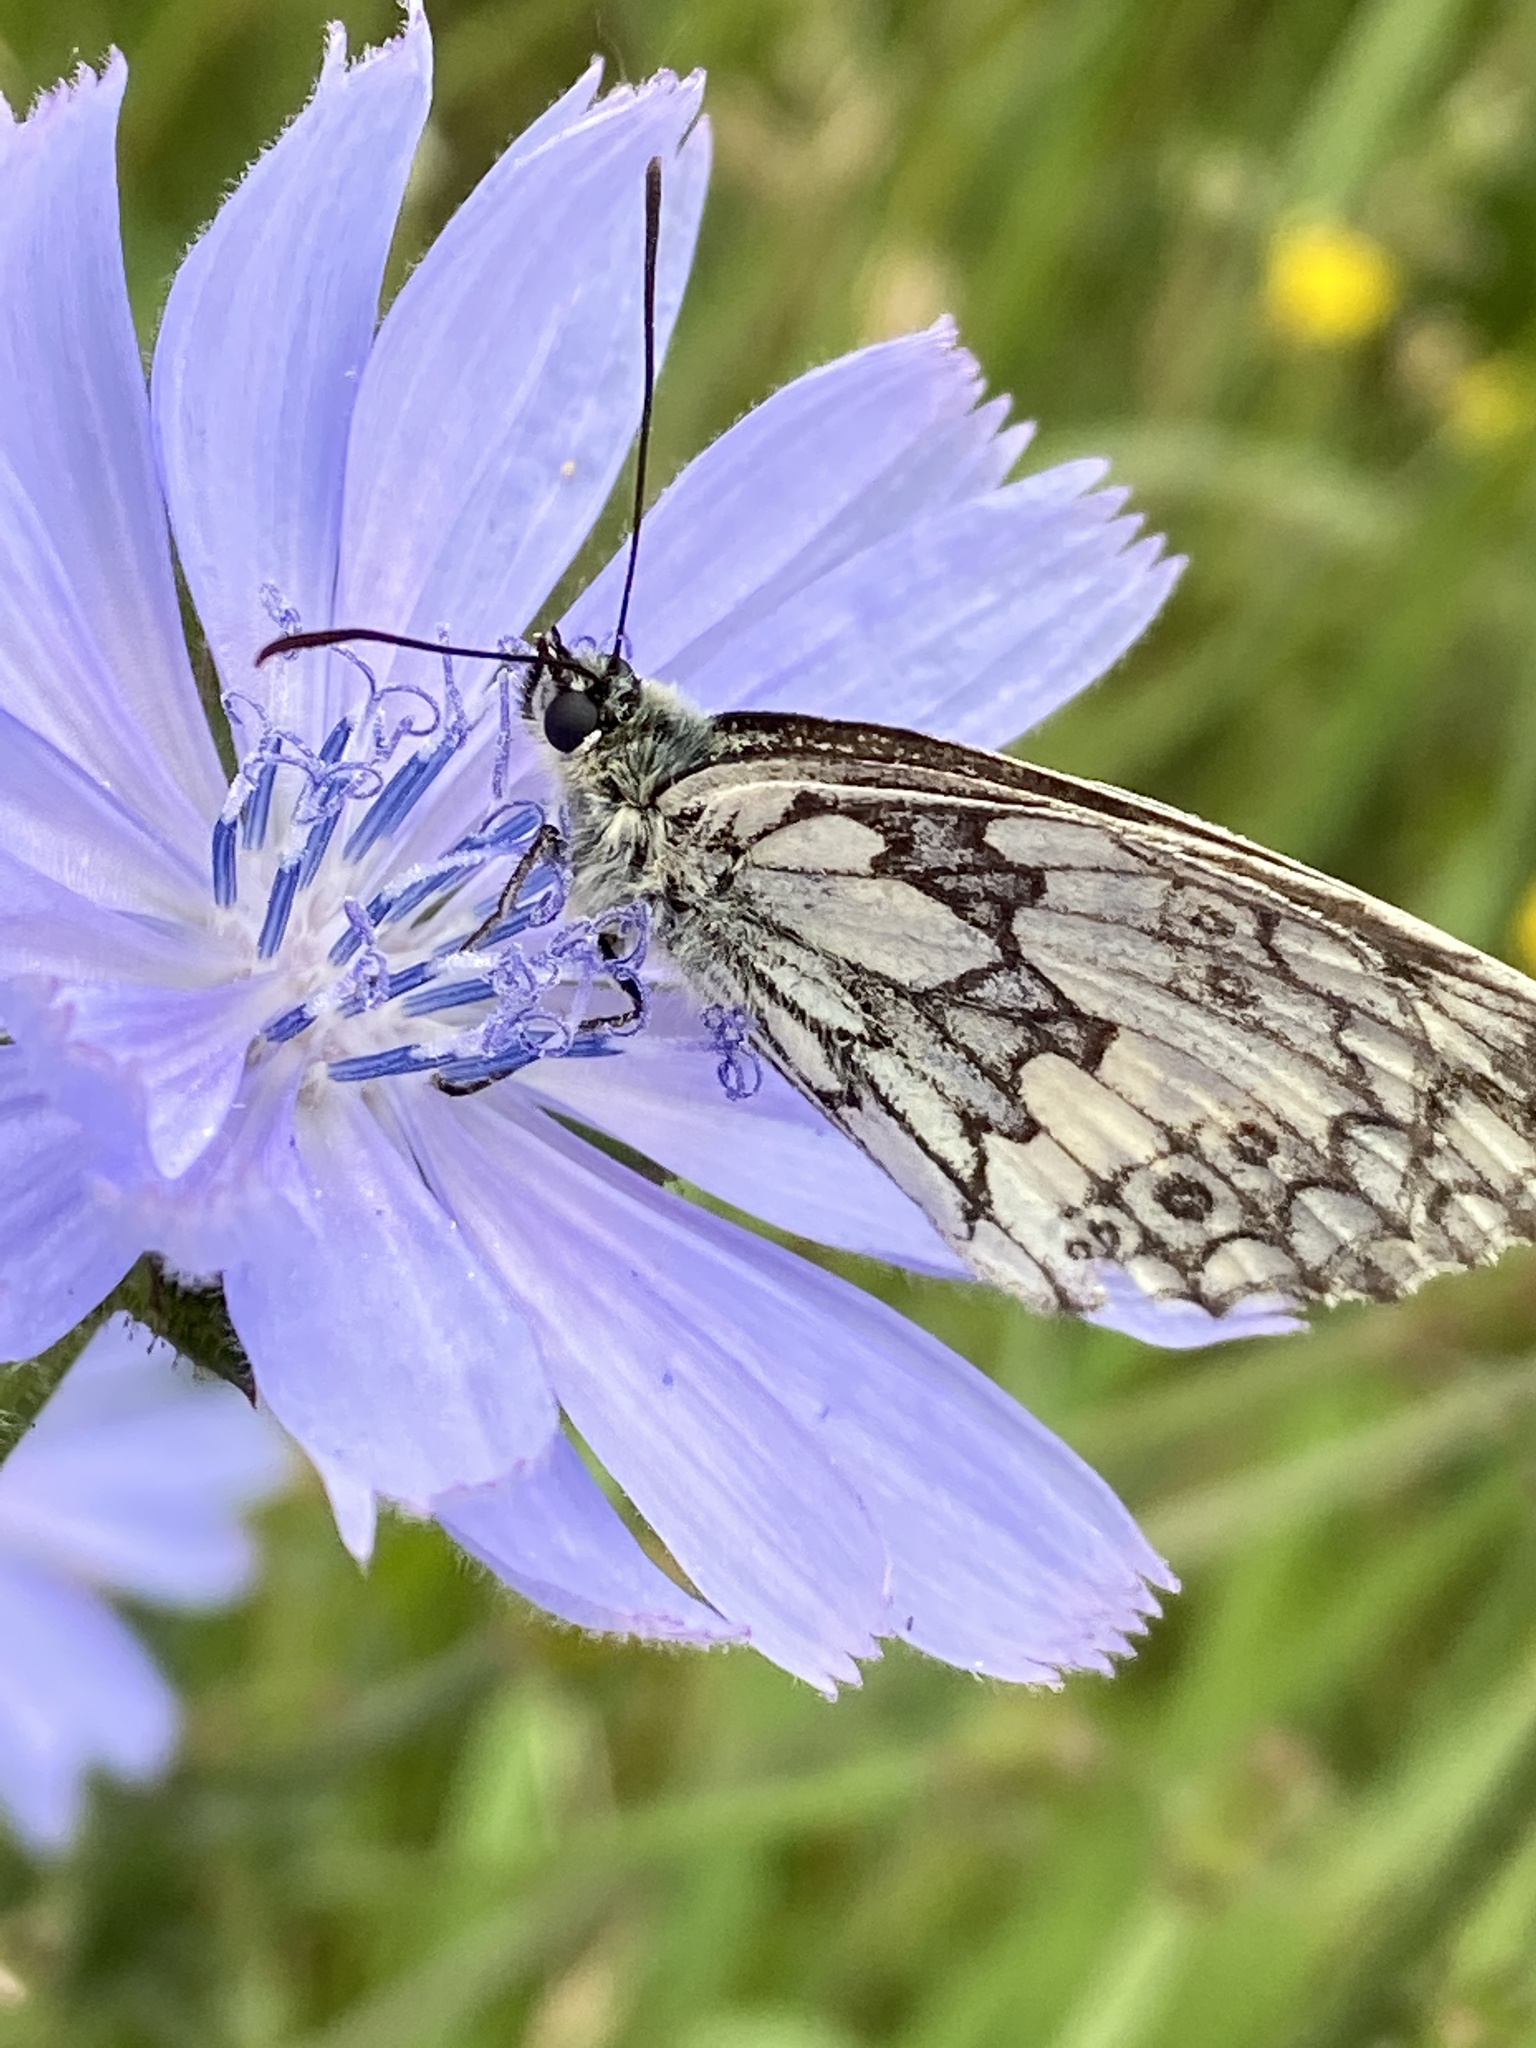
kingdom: Animalia
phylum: Arthropoda
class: Insecta
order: Lepidoptera
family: Nymphalidae
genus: Melanargia
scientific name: Melanargia galathea
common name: Marbled white
